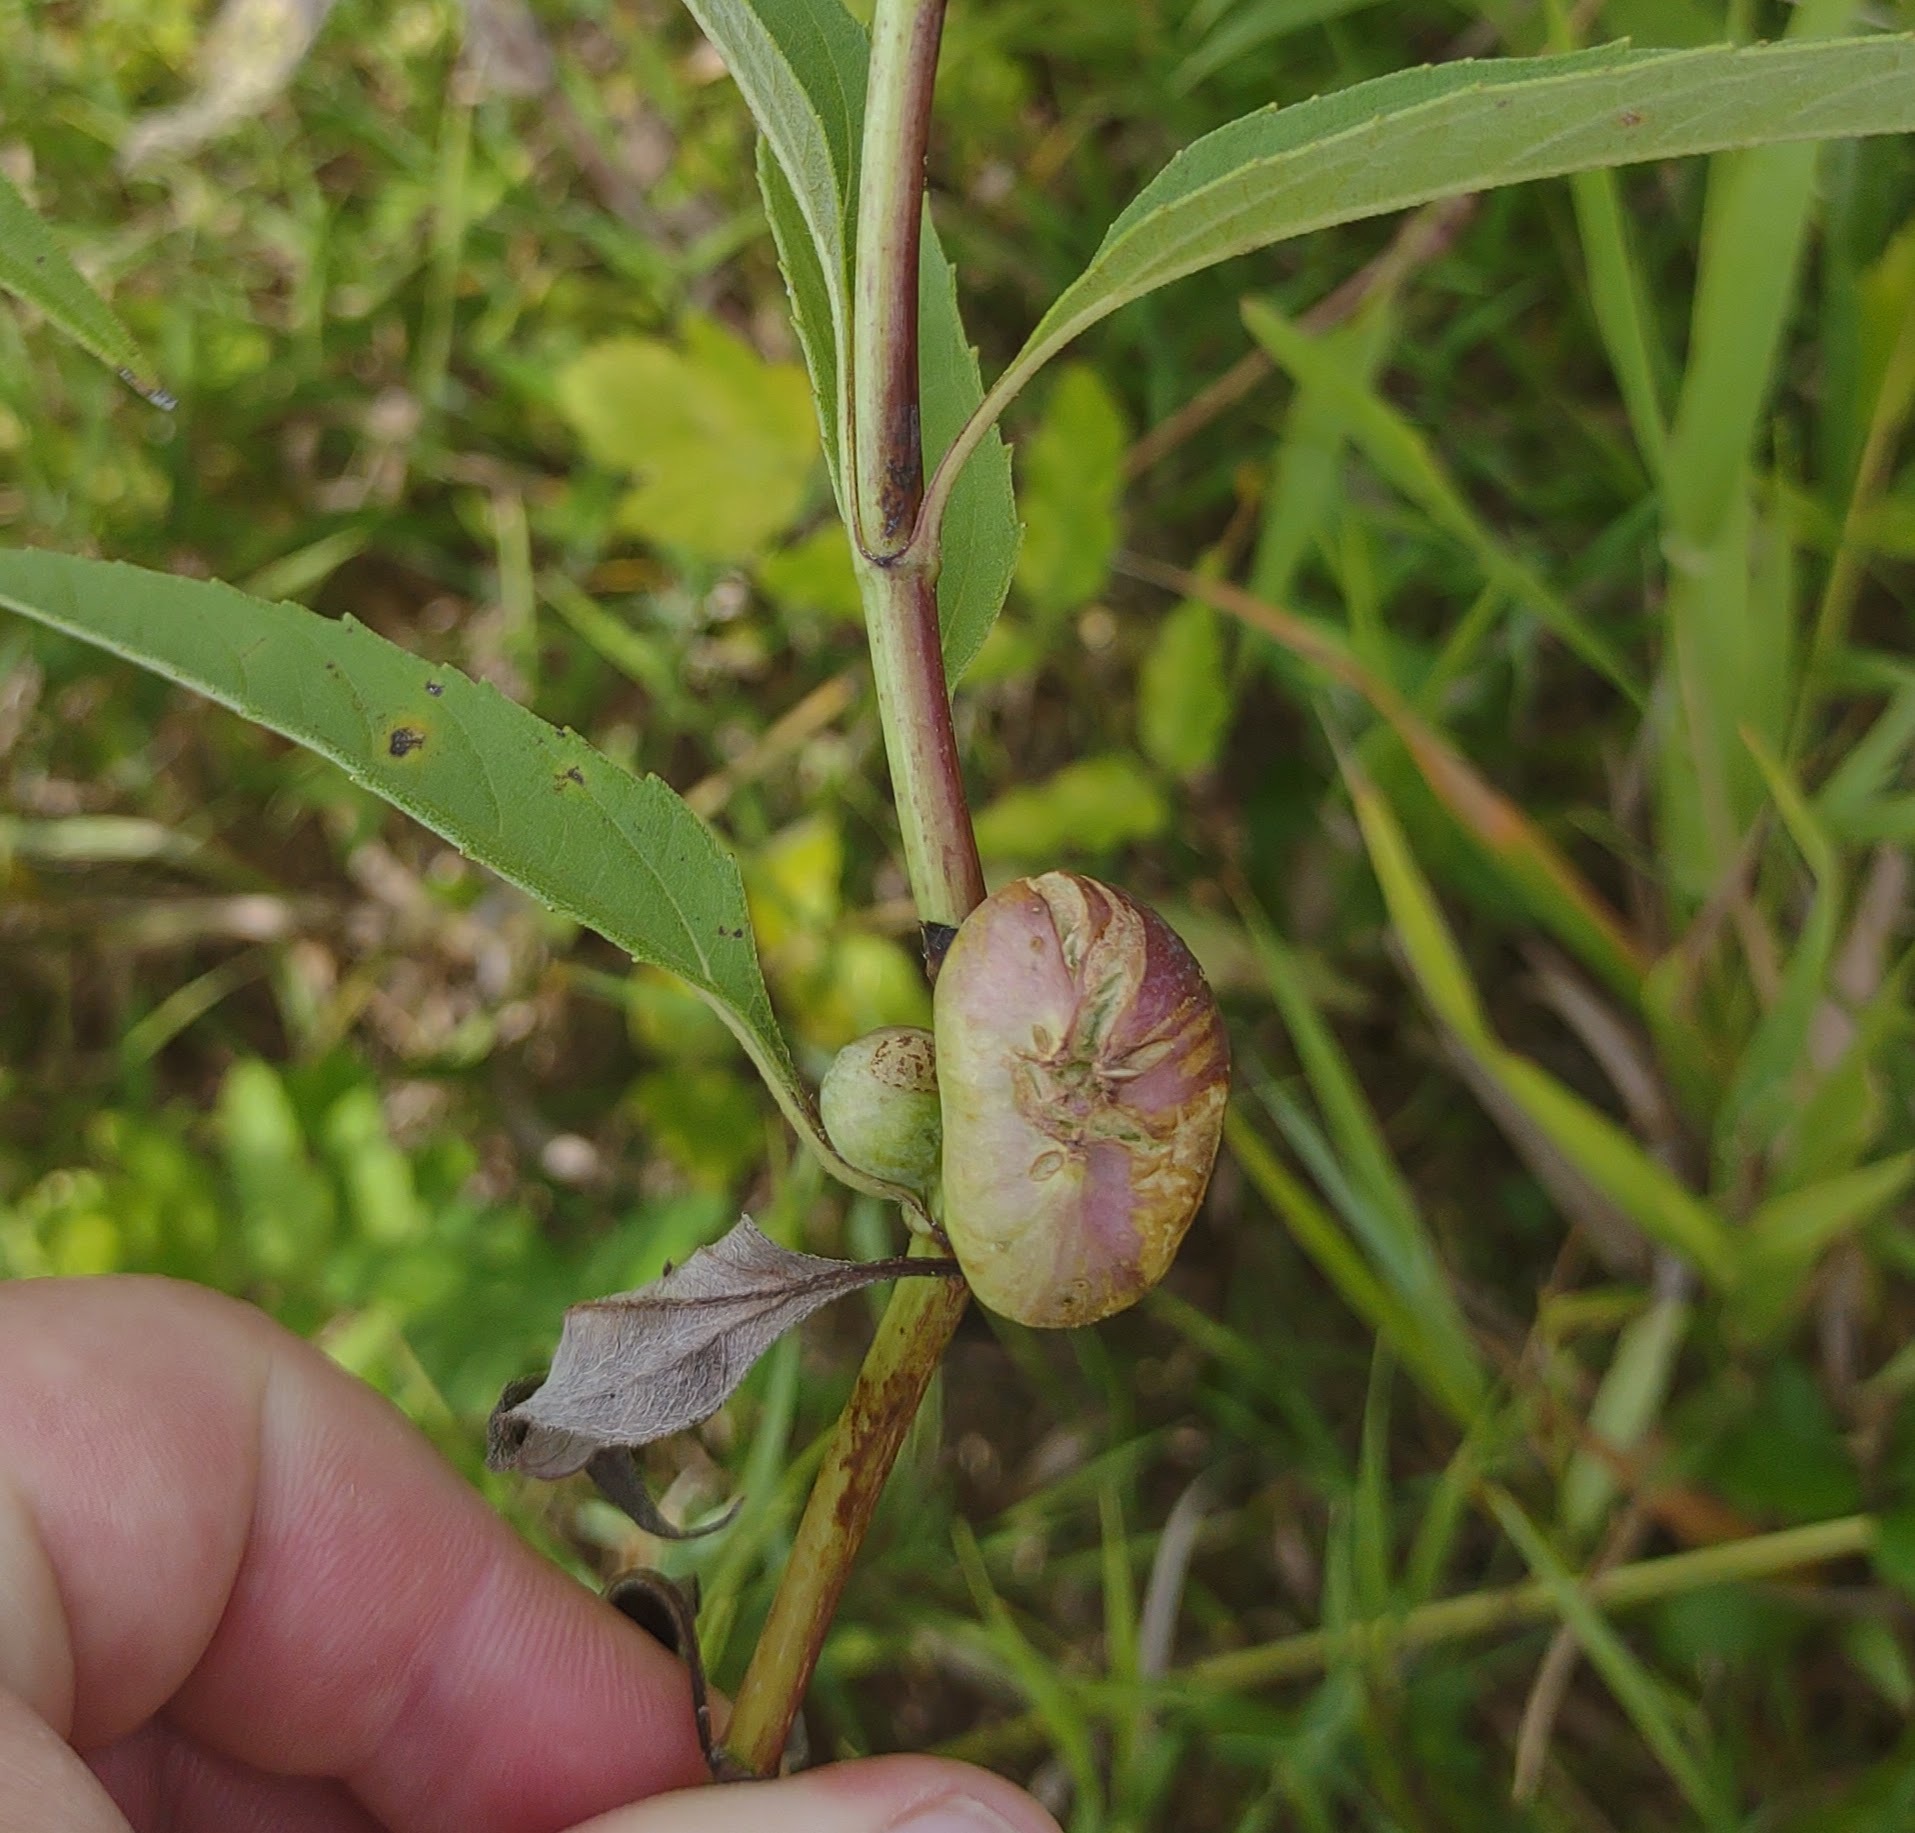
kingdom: Animalia
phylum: Arthropoda
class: Insecta
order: Diptera
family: Cecidomyiidae
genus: Asphondylia
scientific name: Asphondylia helianthiglobulus
